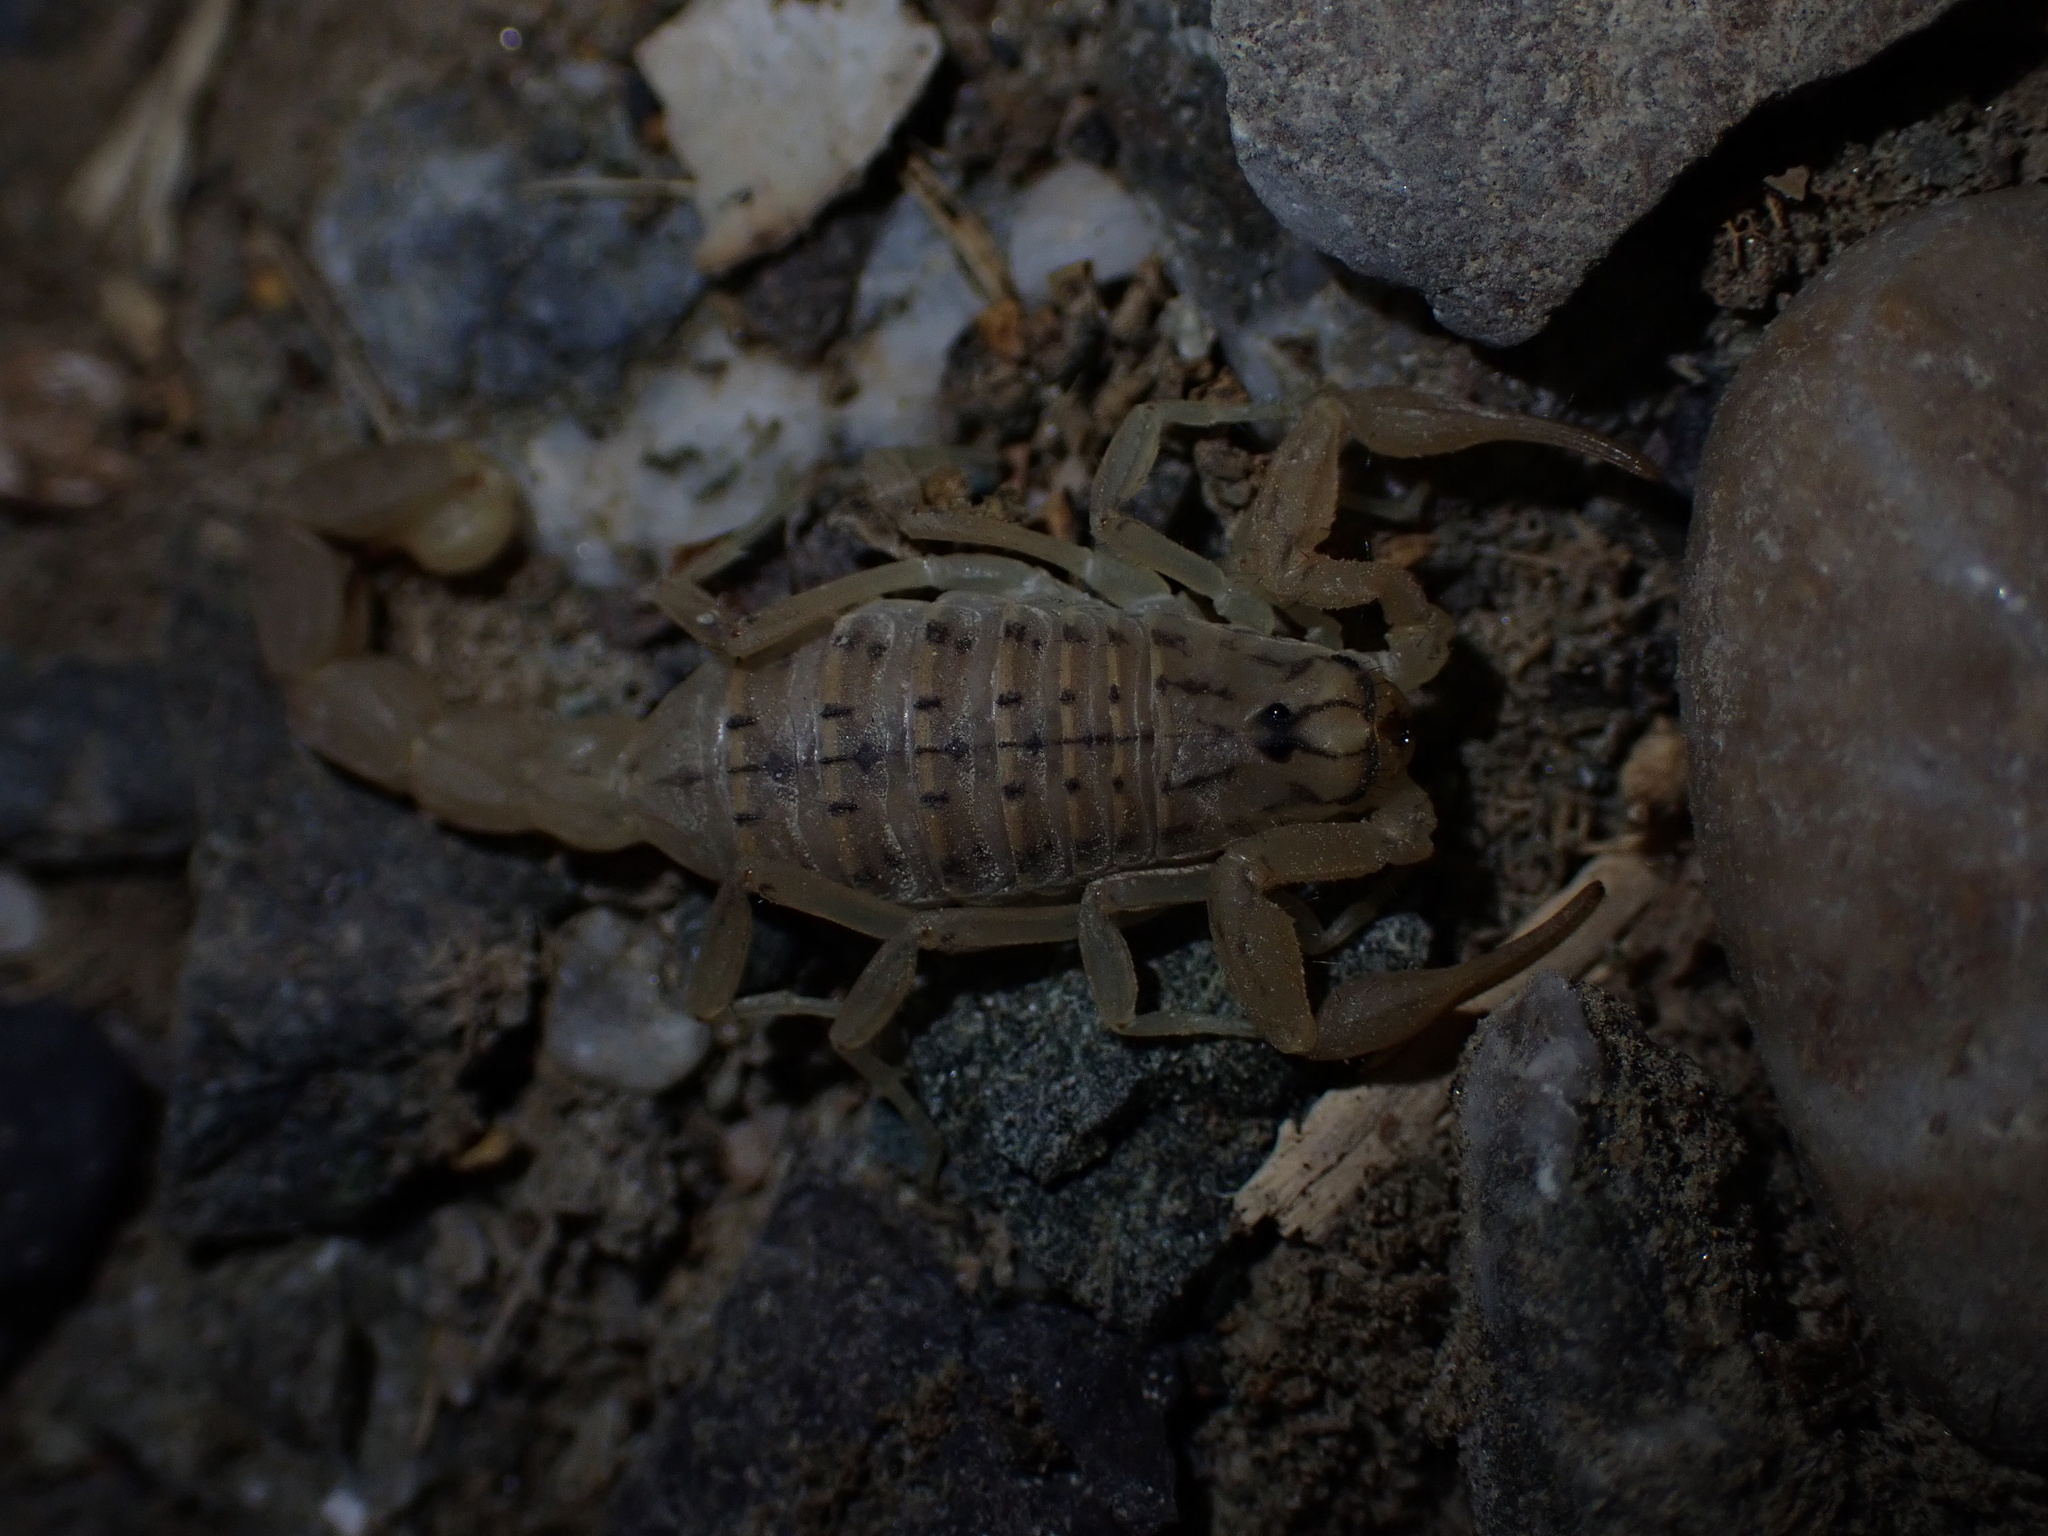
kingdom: Animalia
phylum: Arthropoda
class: Arachnida
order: Scorpiones
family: Buthidae
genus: Mesobuthus
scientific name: Mesobuthus mirshamsii
